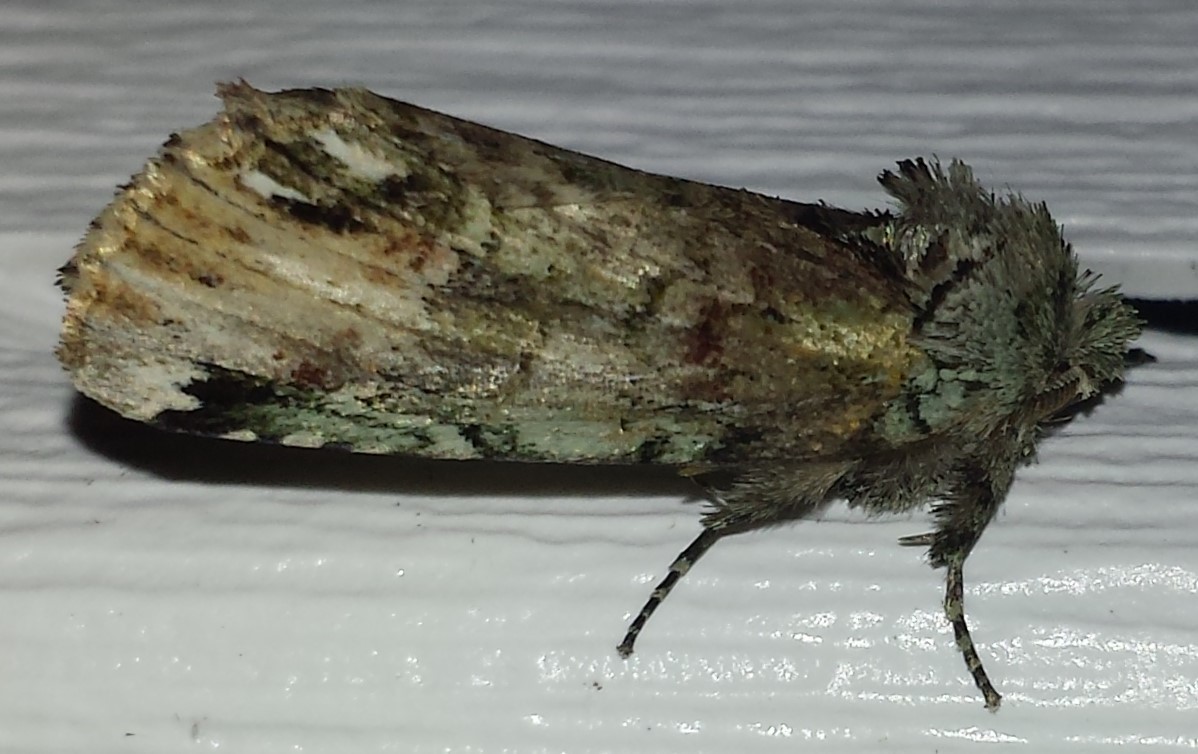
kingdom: Animalia
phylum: Arthropoda
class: Insecta
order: Lepidoptera
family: Notodontidae
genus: Schizura
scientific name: Schizura
